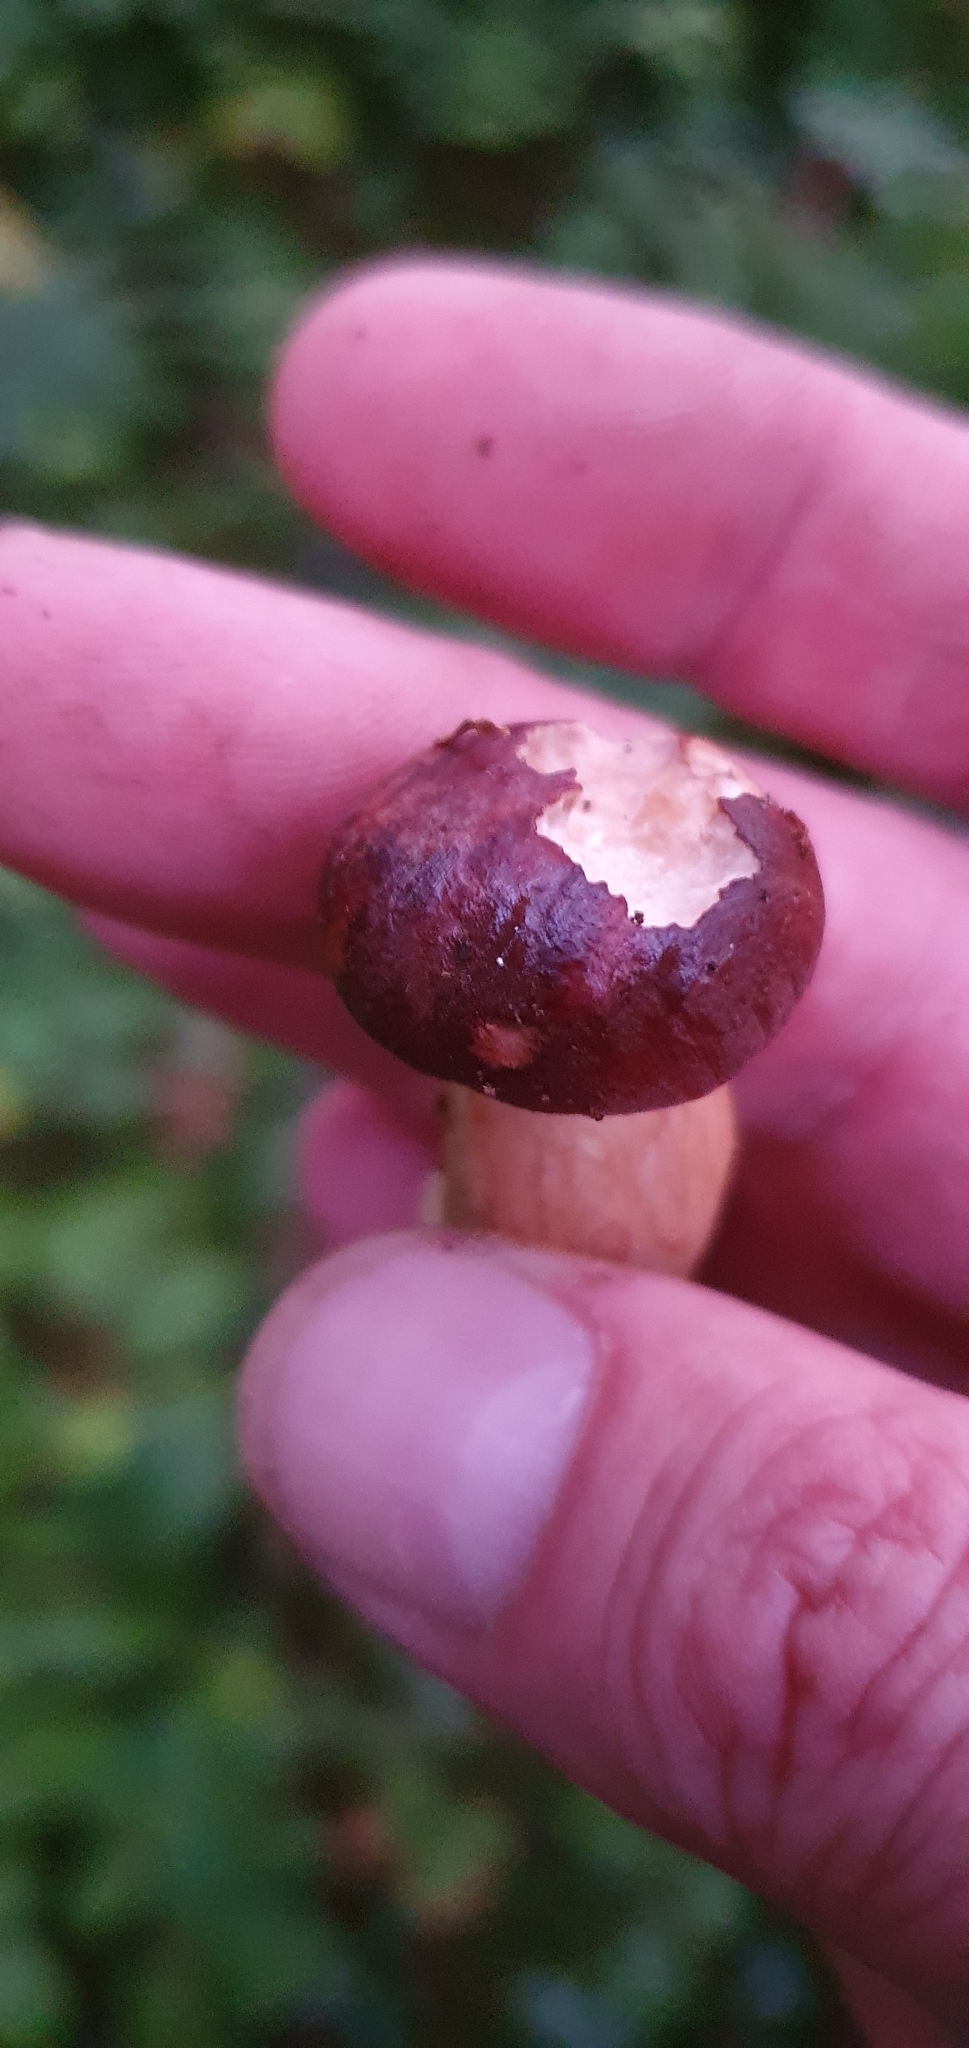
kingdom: Fungi
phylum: Basidiomycota
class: Agaricomycetes
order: Boletales
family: Boletaceae
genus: Imleria
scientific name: Imleria badia
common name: Bay bolete
